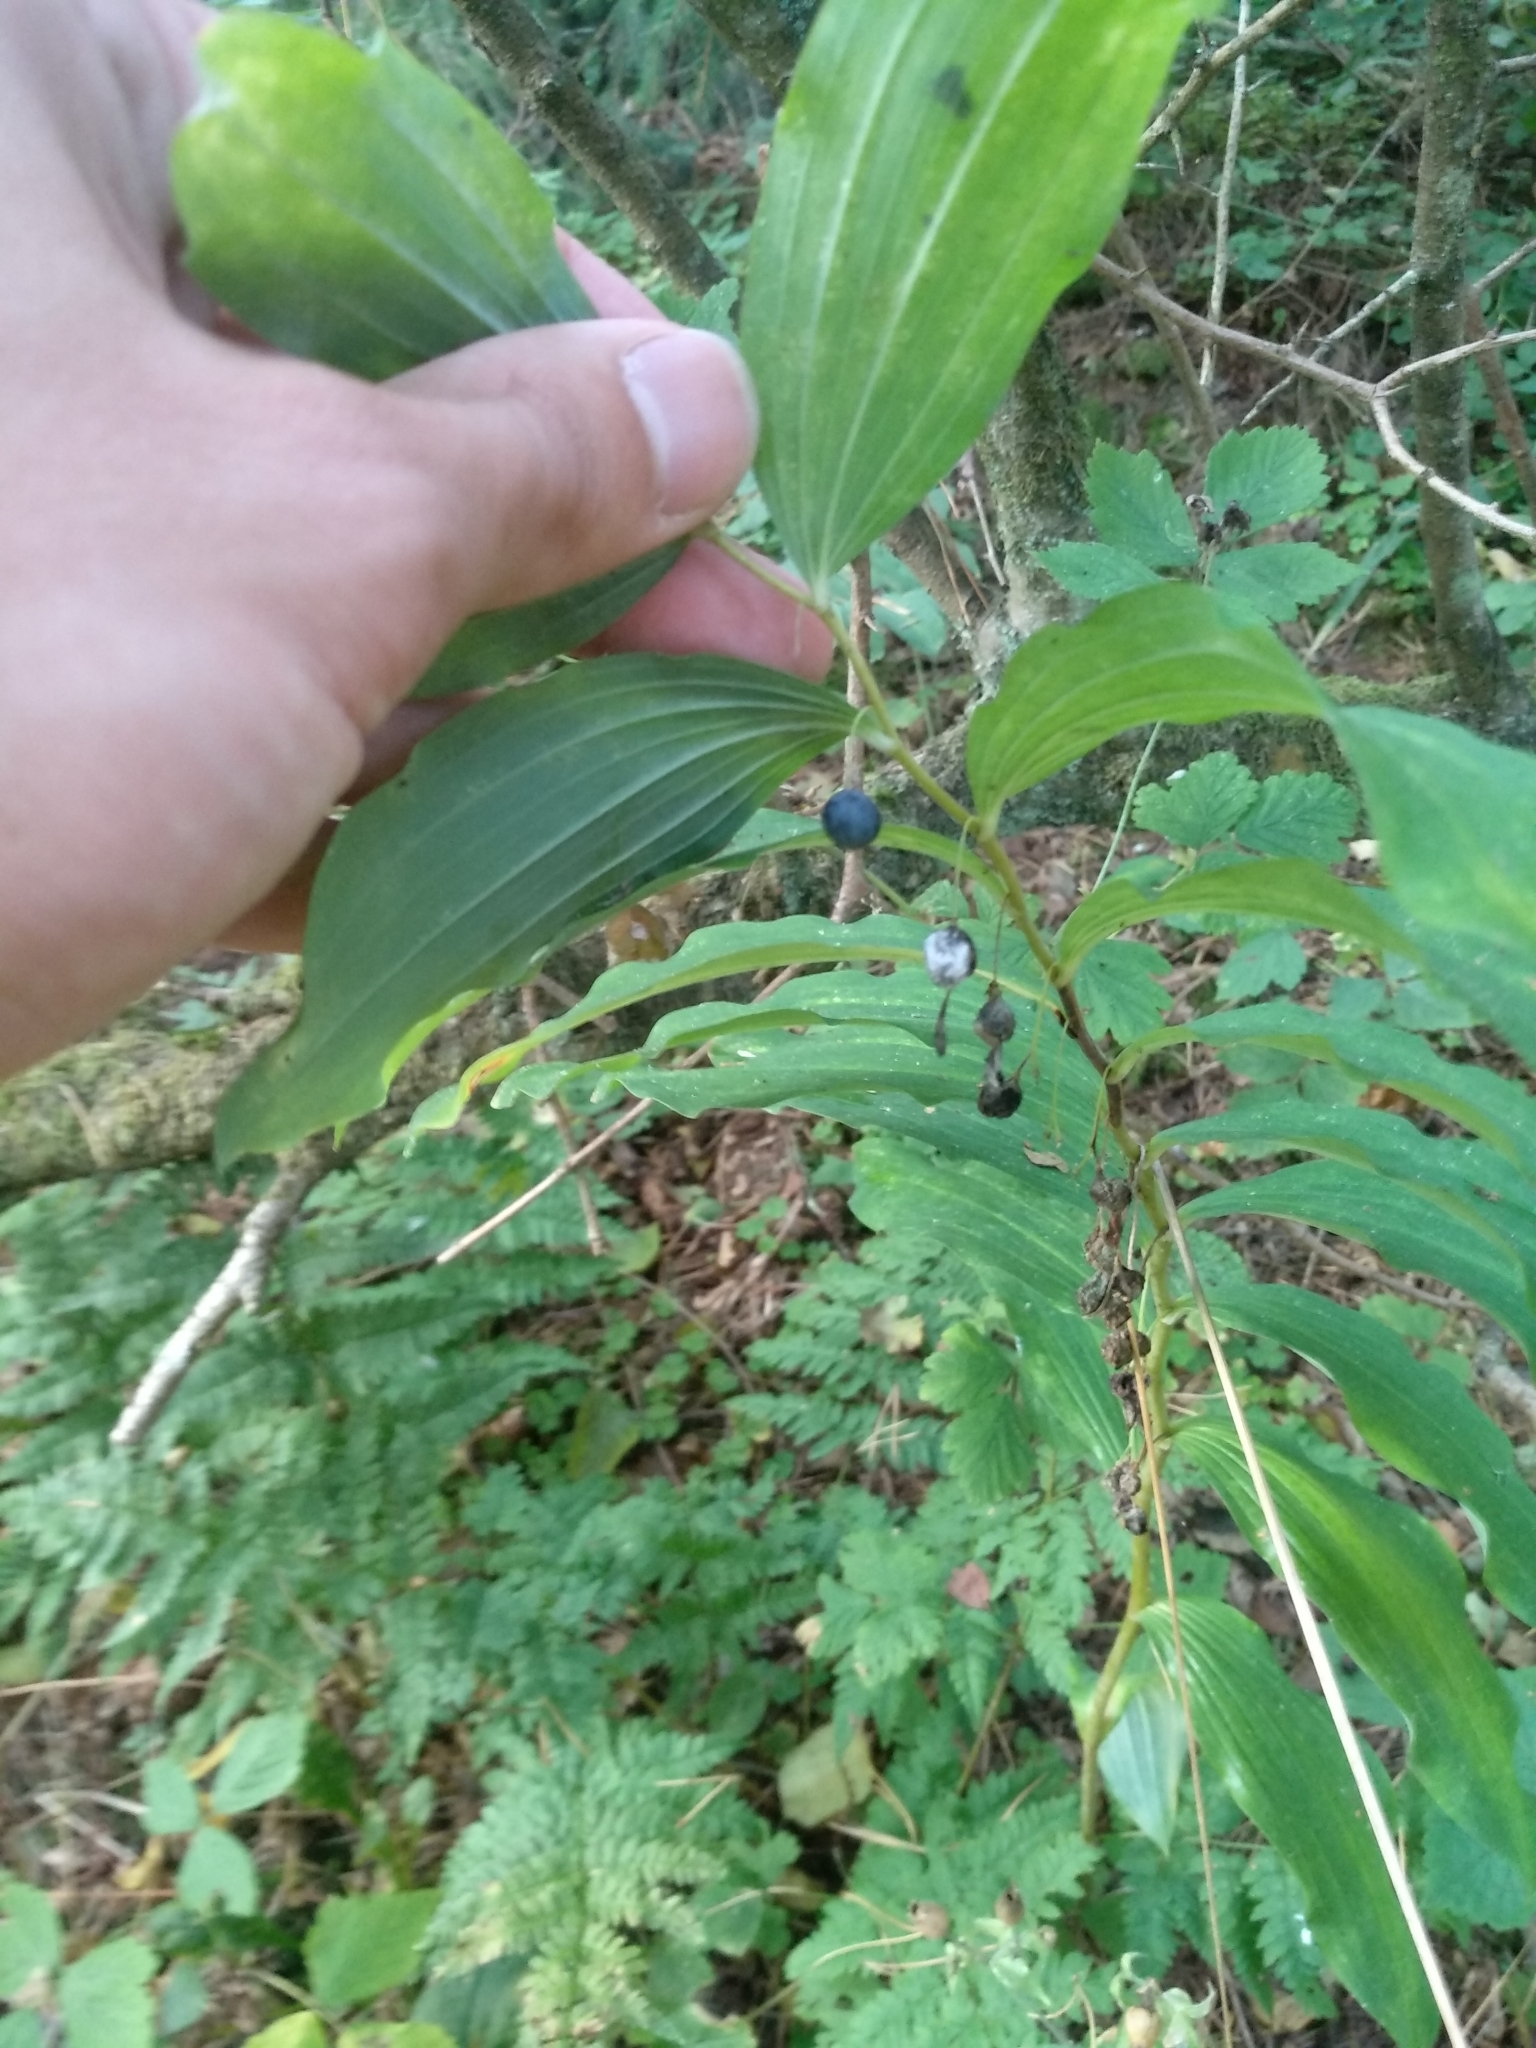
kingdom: Plantae
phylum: Tracheophyta
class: Liliopsida
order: Asparagales
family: Asparagaceae
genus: Polygonatum
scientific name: Polygonatum multiflorum
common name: Solomon's-seal
